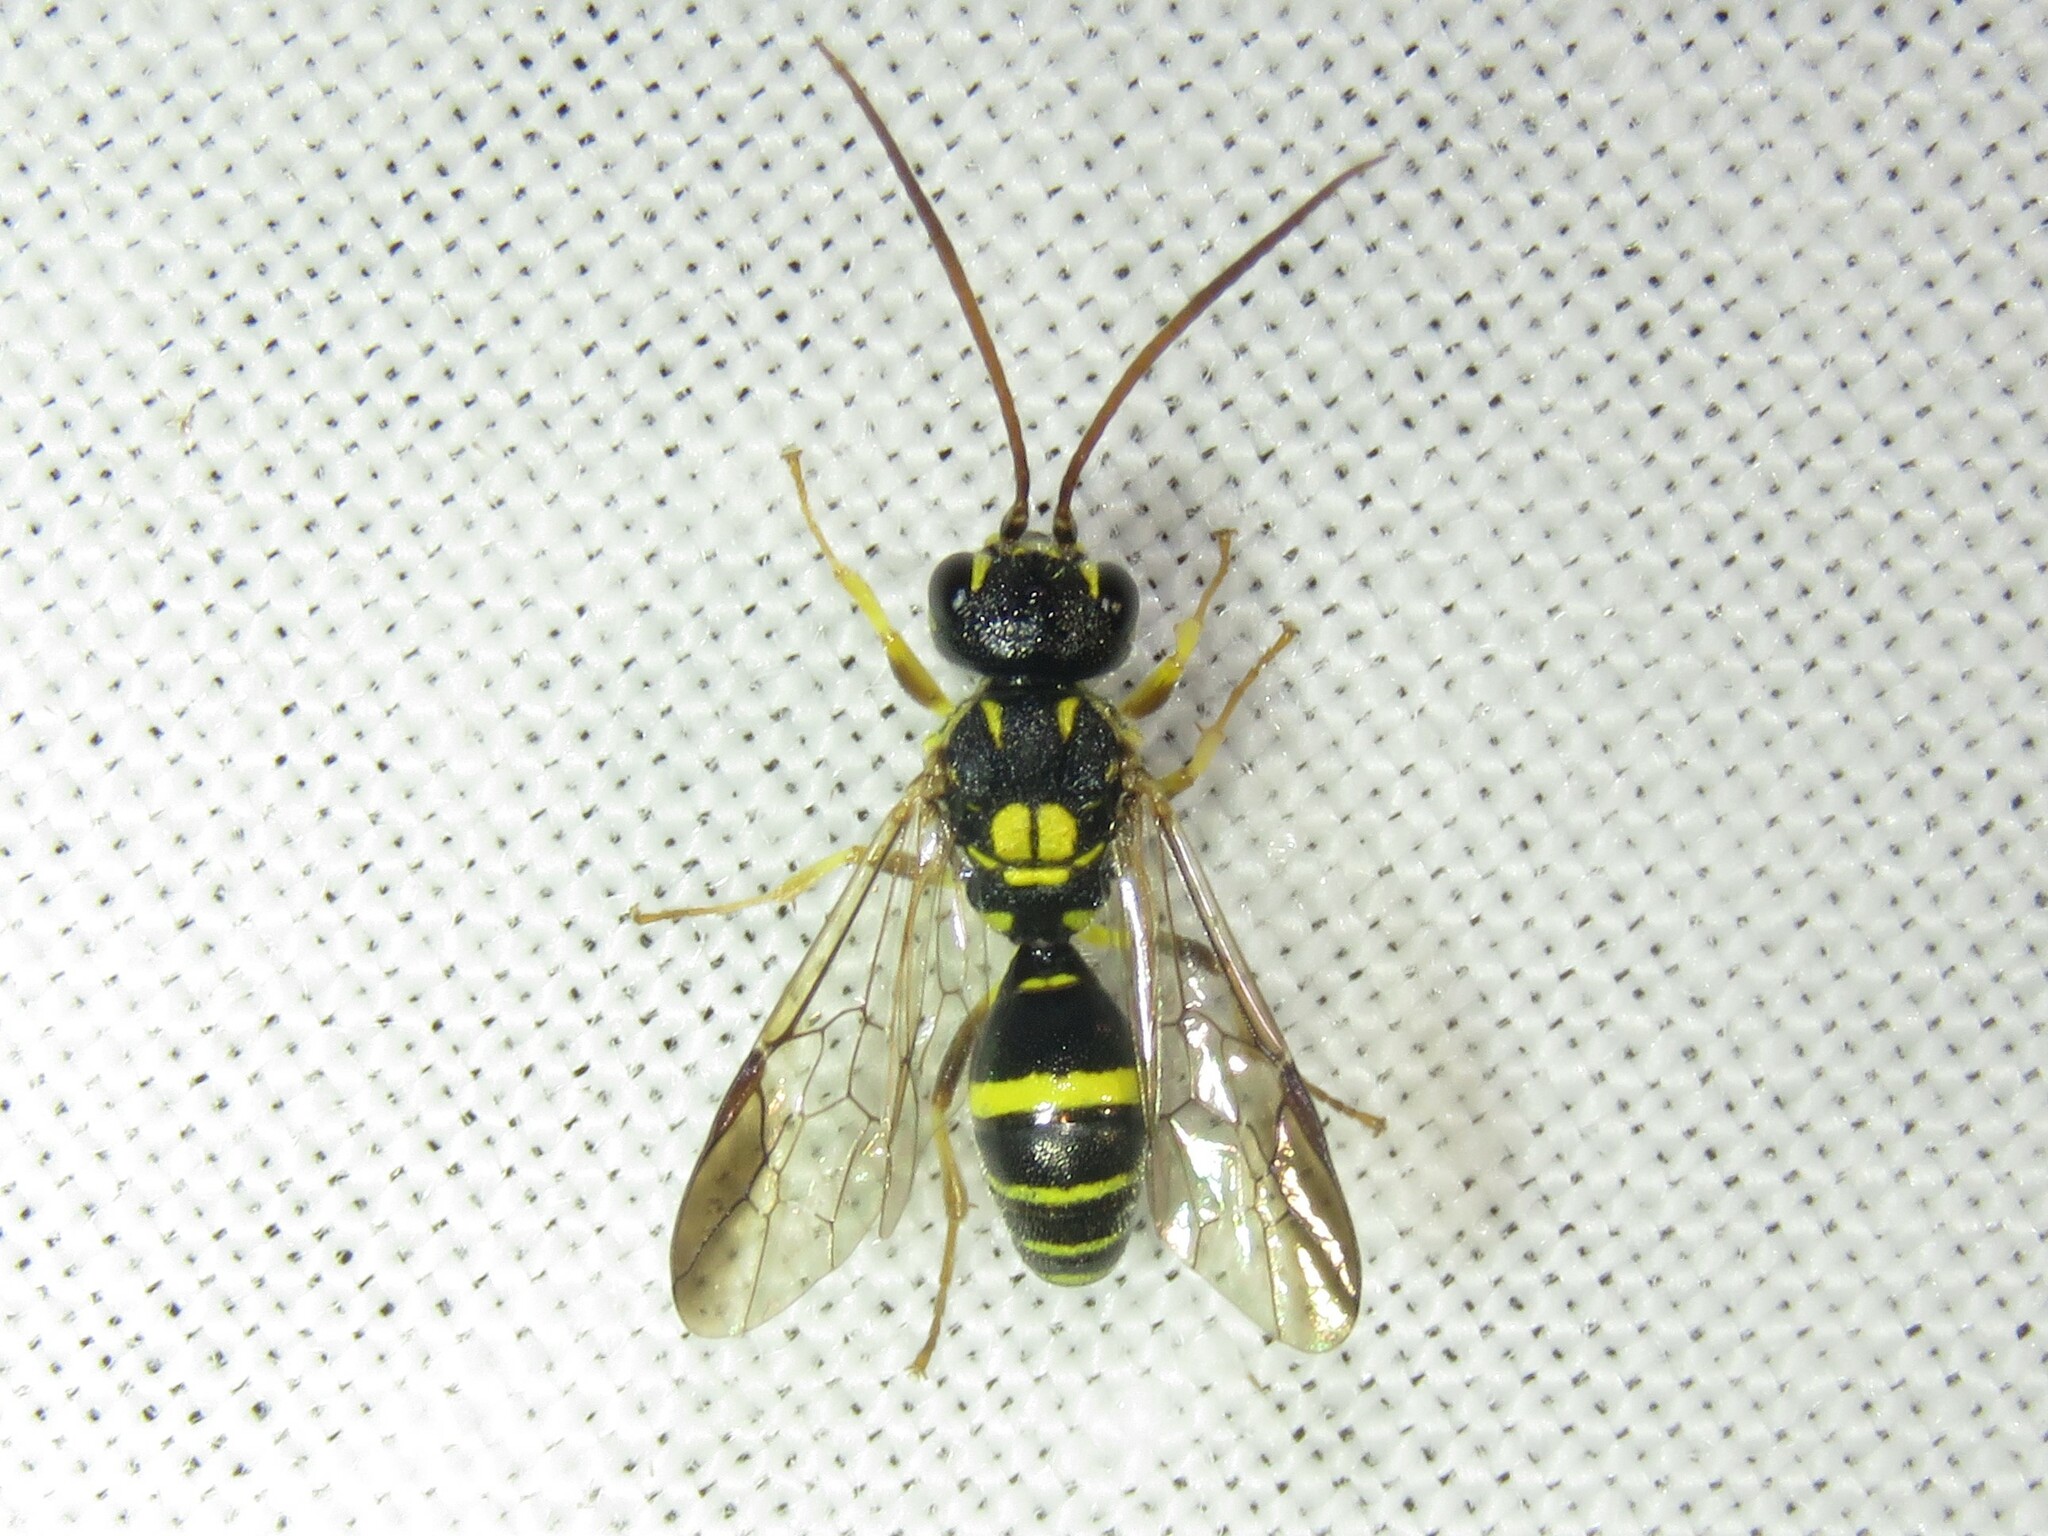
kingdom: Animalia
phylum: Arthropoda
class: Insecta
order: Hymenoptera
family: Trigonalidae
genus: Taeniogonalos
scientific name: Taeniogonalos gundlachii
